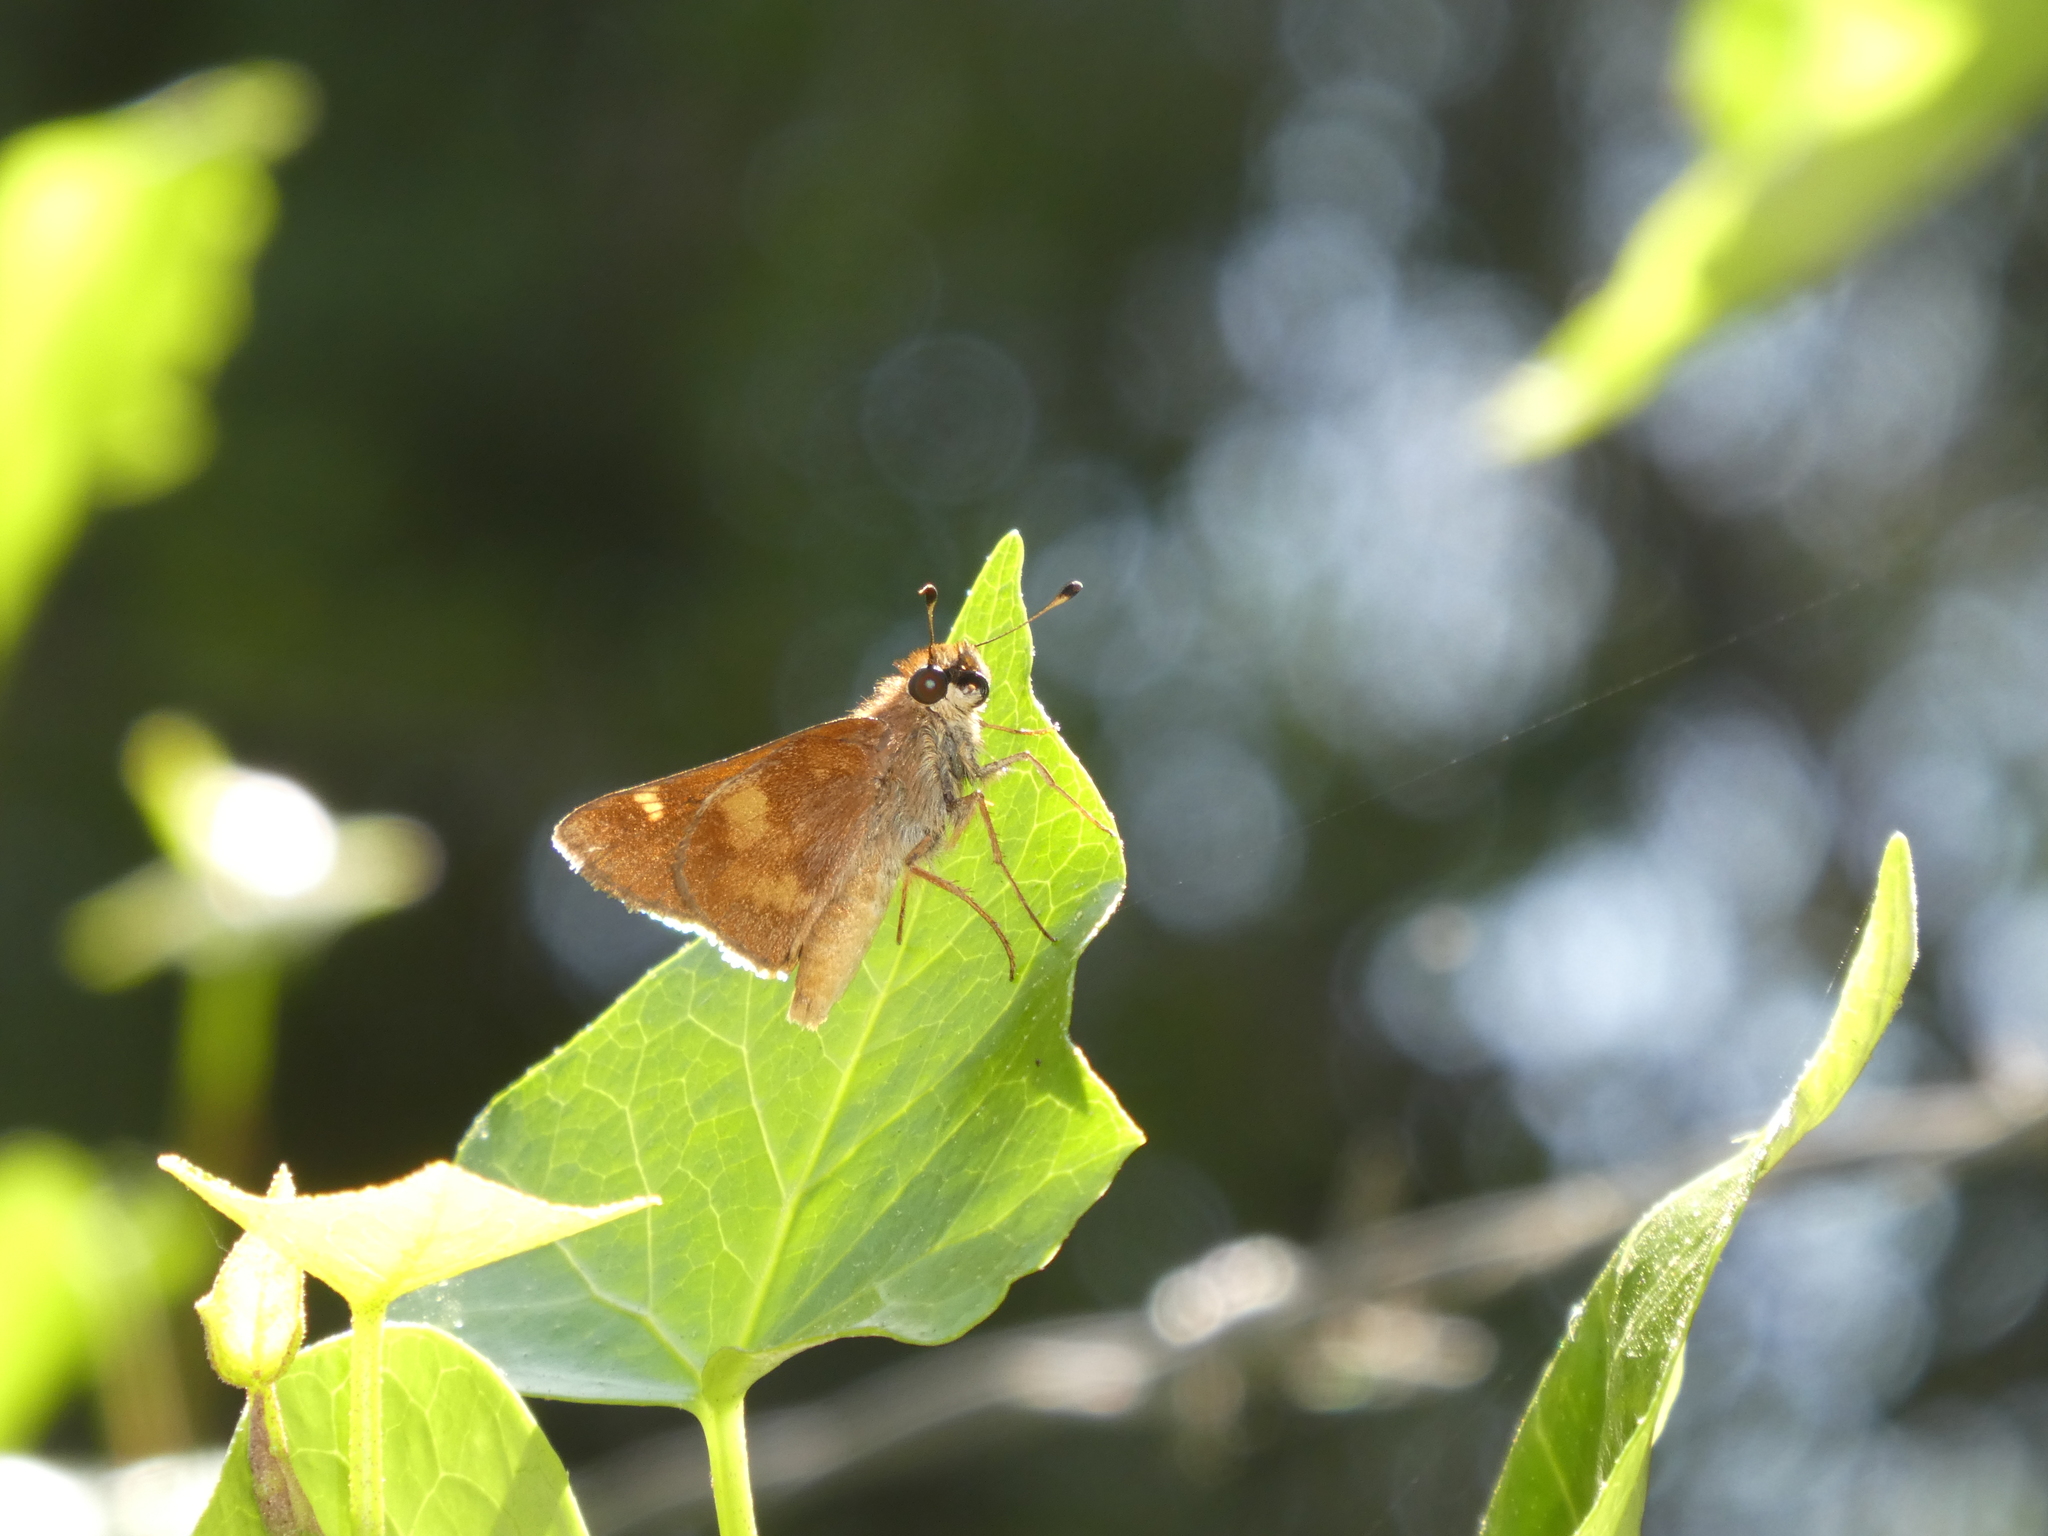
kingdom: Animalia
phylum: Arthropoda
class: Insecta
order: Lepidoptera
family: Hesperiidae
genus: Lon
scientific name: Lon melane
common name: Umber skipper
